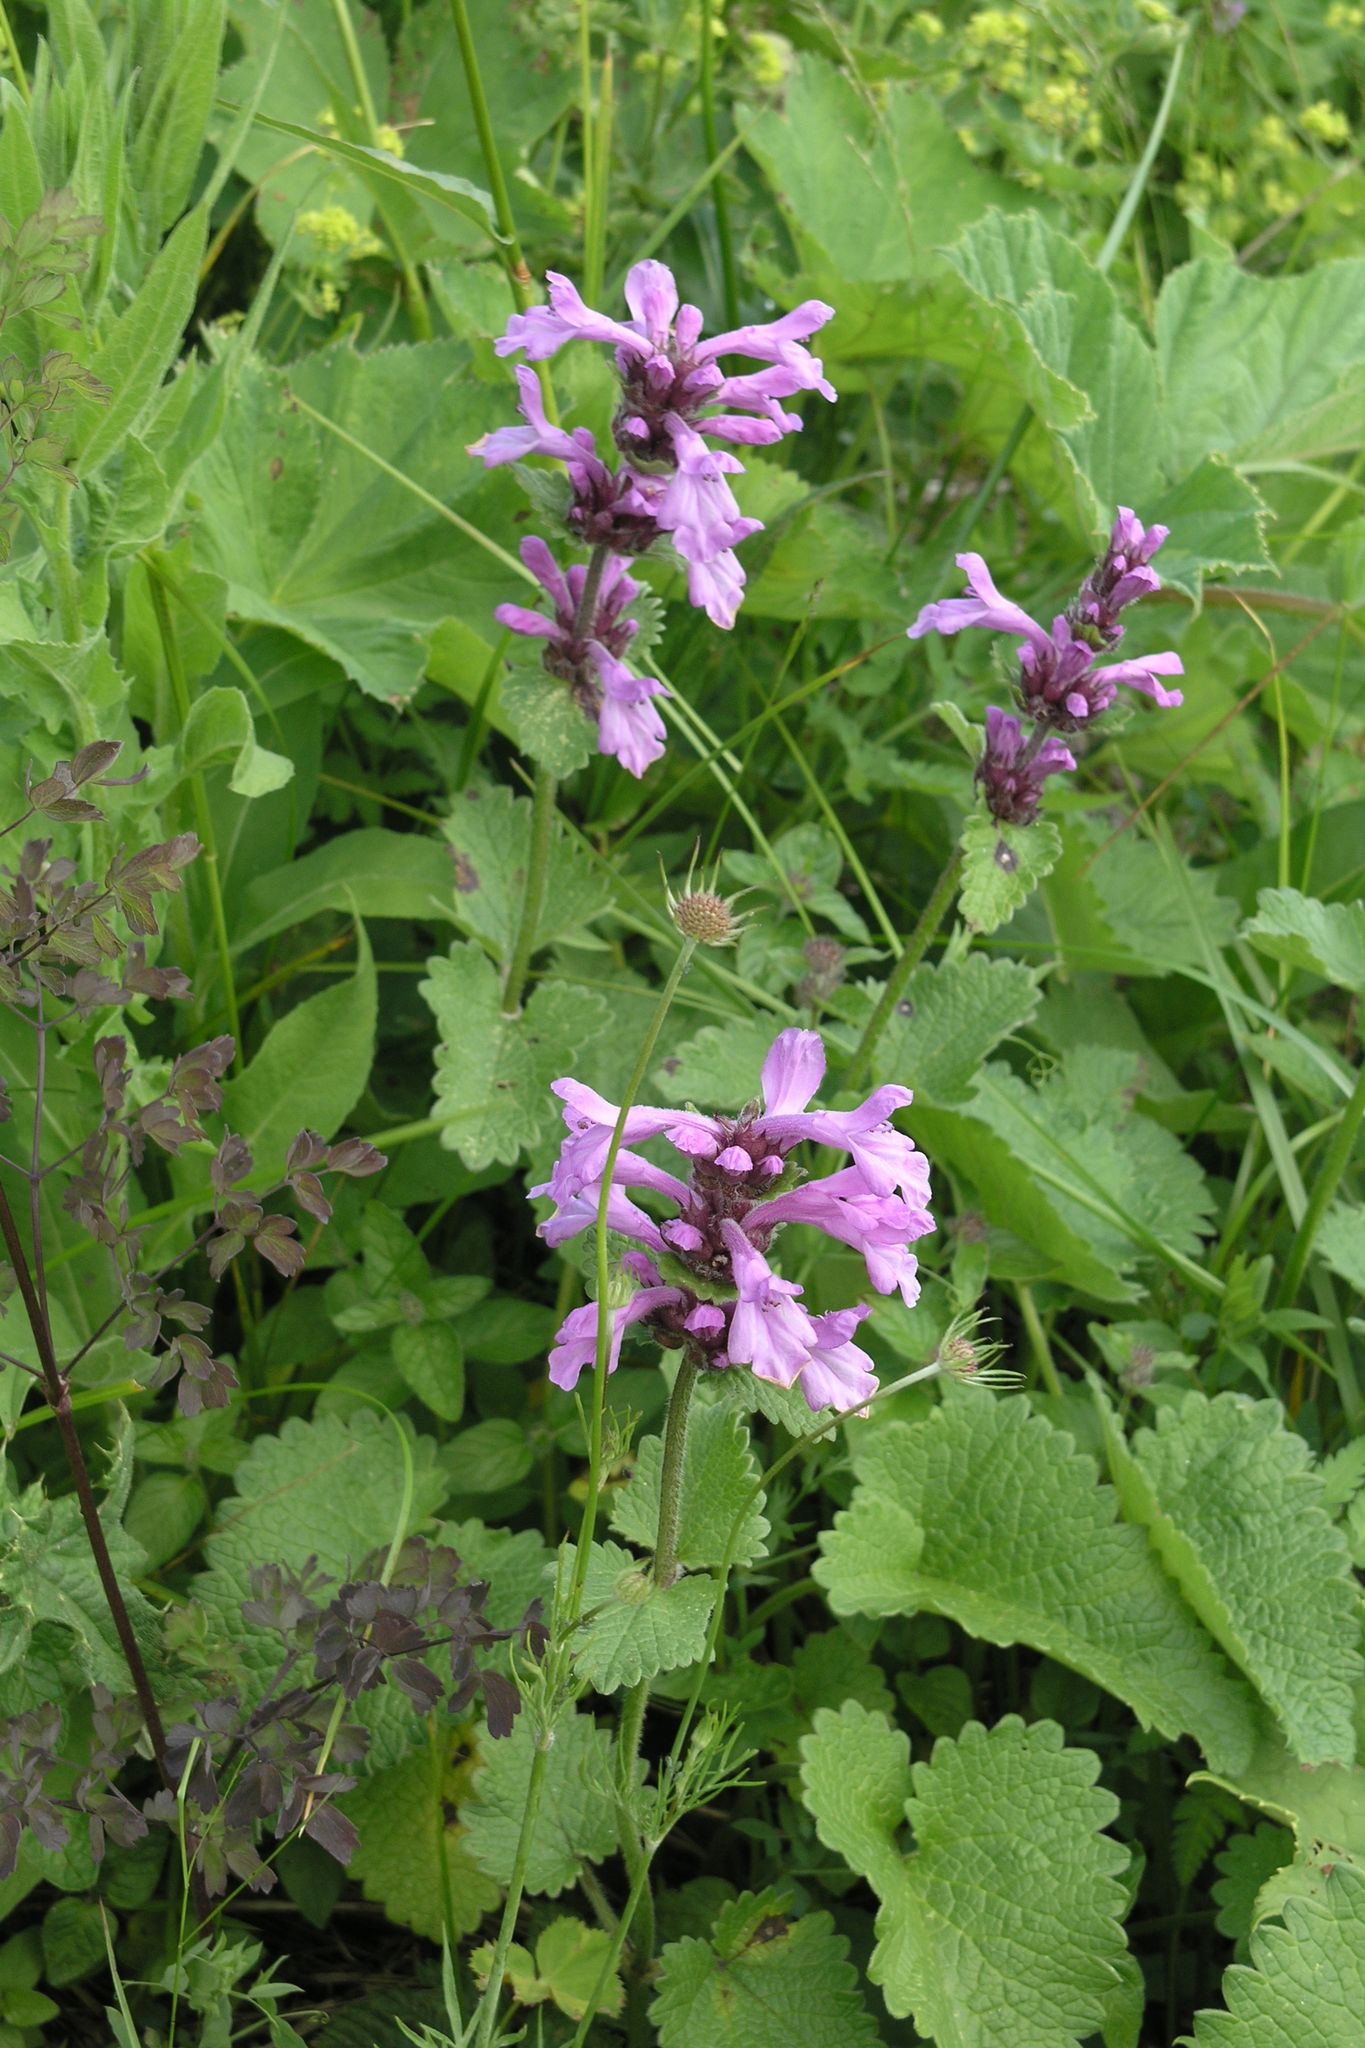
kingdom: Plantae
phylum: Tracheophyta
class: Magnoliopsida
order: Lamiales
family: Lamiaceae
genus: Betonica
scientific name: Betonica macrantha
